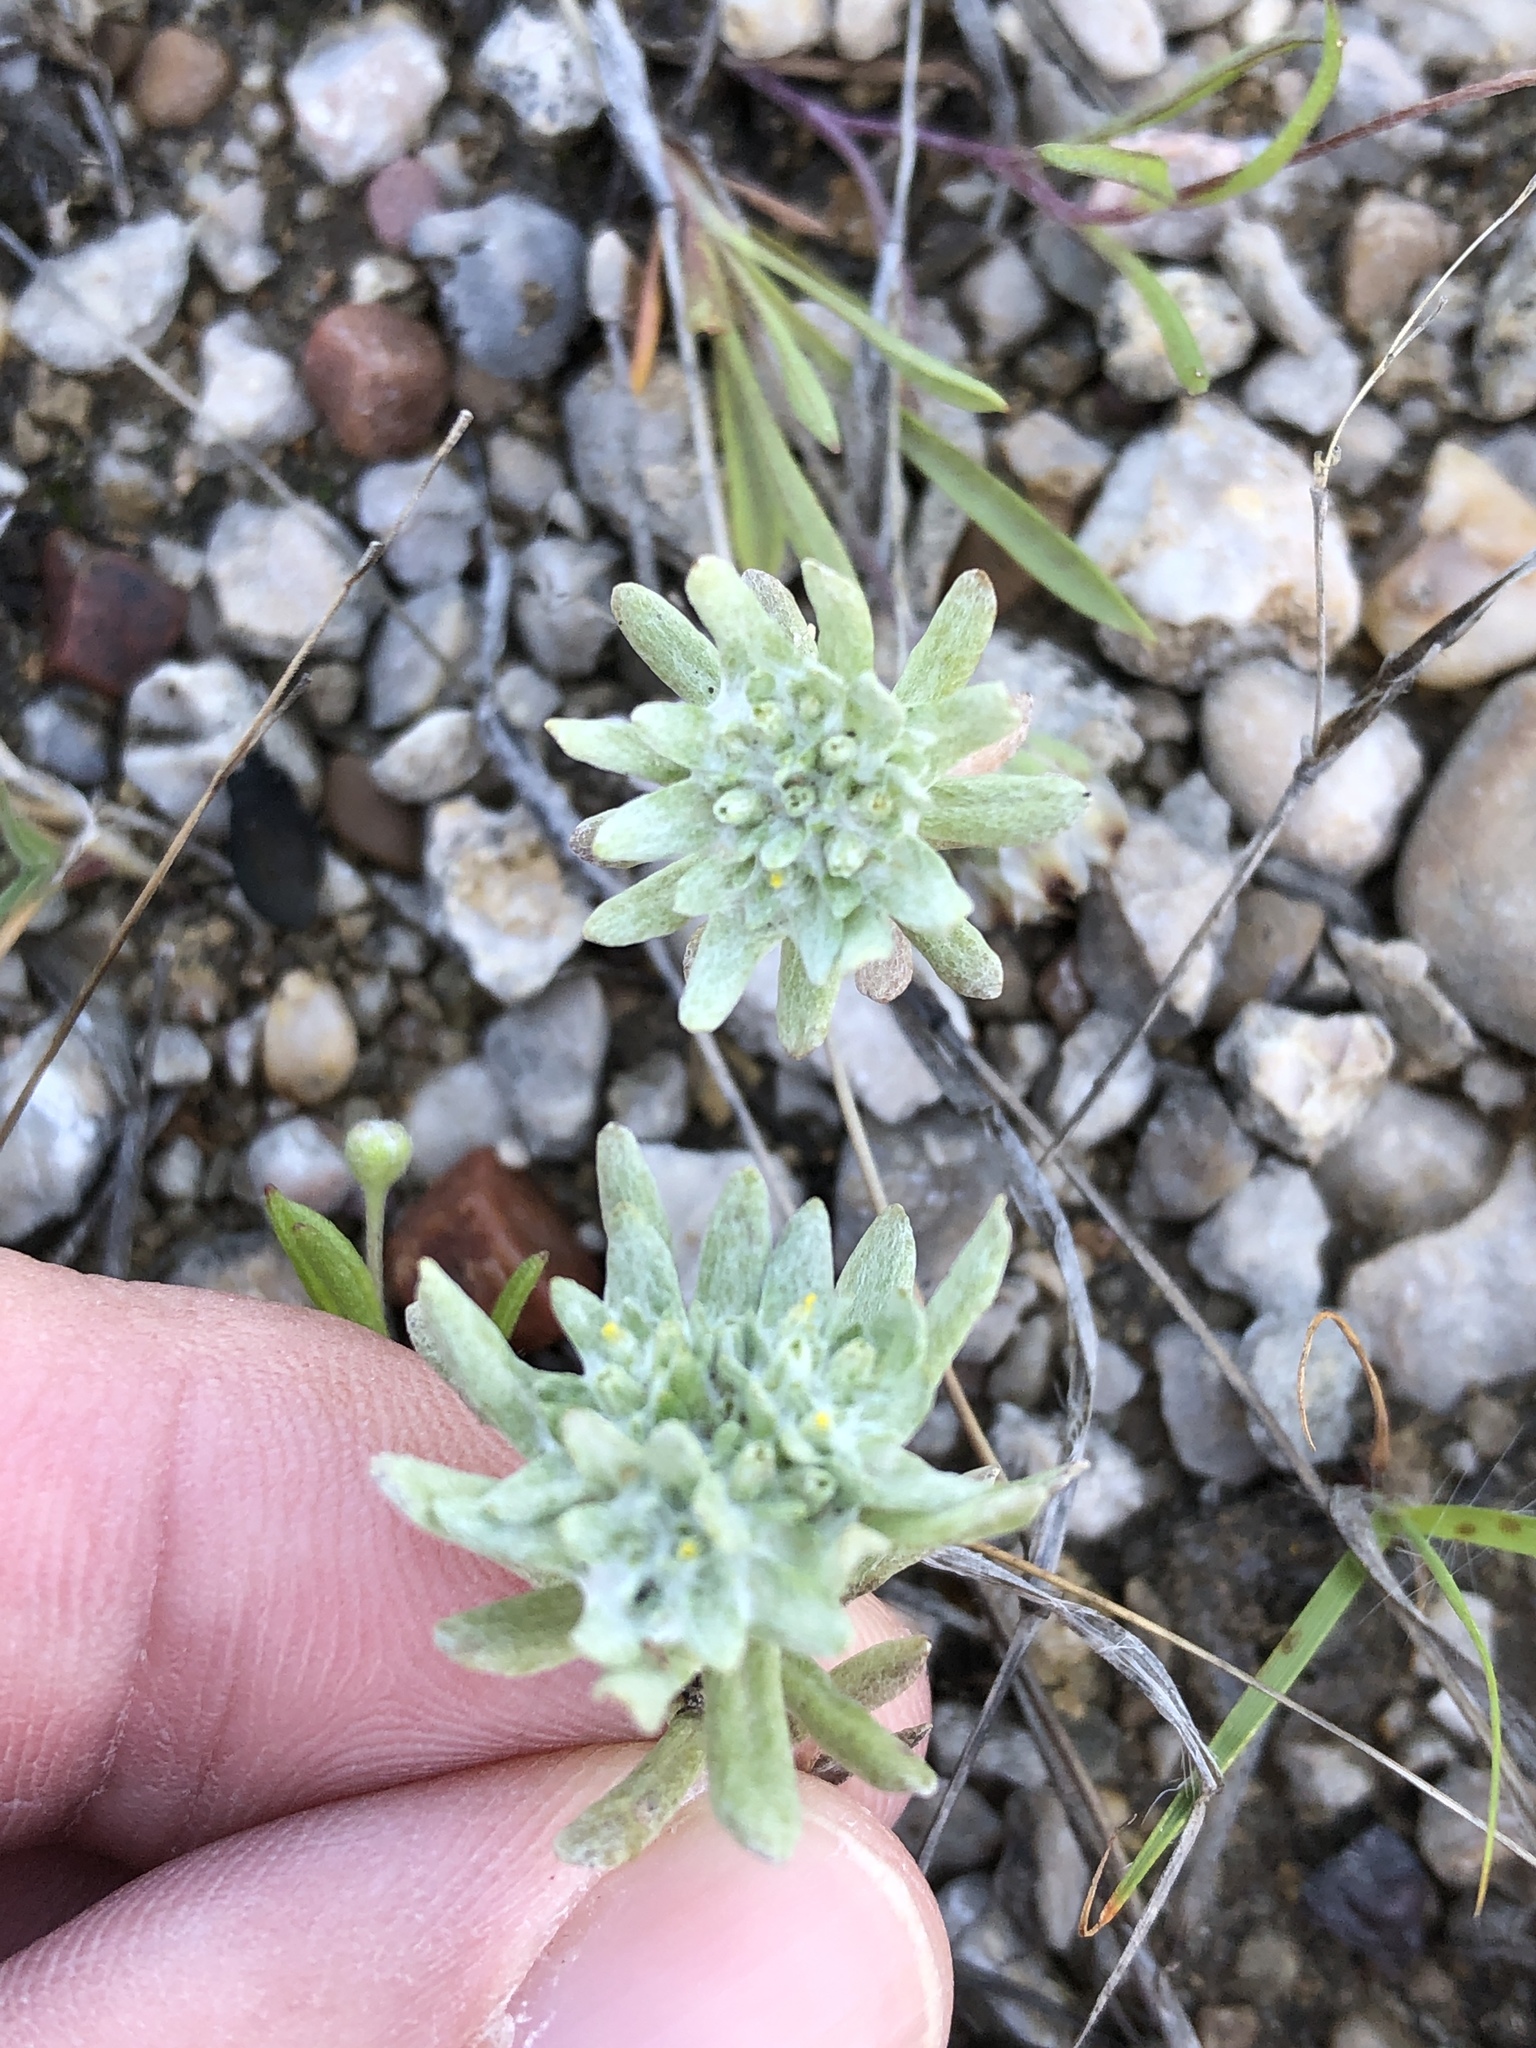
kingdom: Plantae
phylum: Tracheophyta
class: Magnoliopsida
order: Asterales
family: Asteraceae
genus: Diaperia
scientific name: Diaperia prolifera
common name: Big-head rabbit-tobacco
